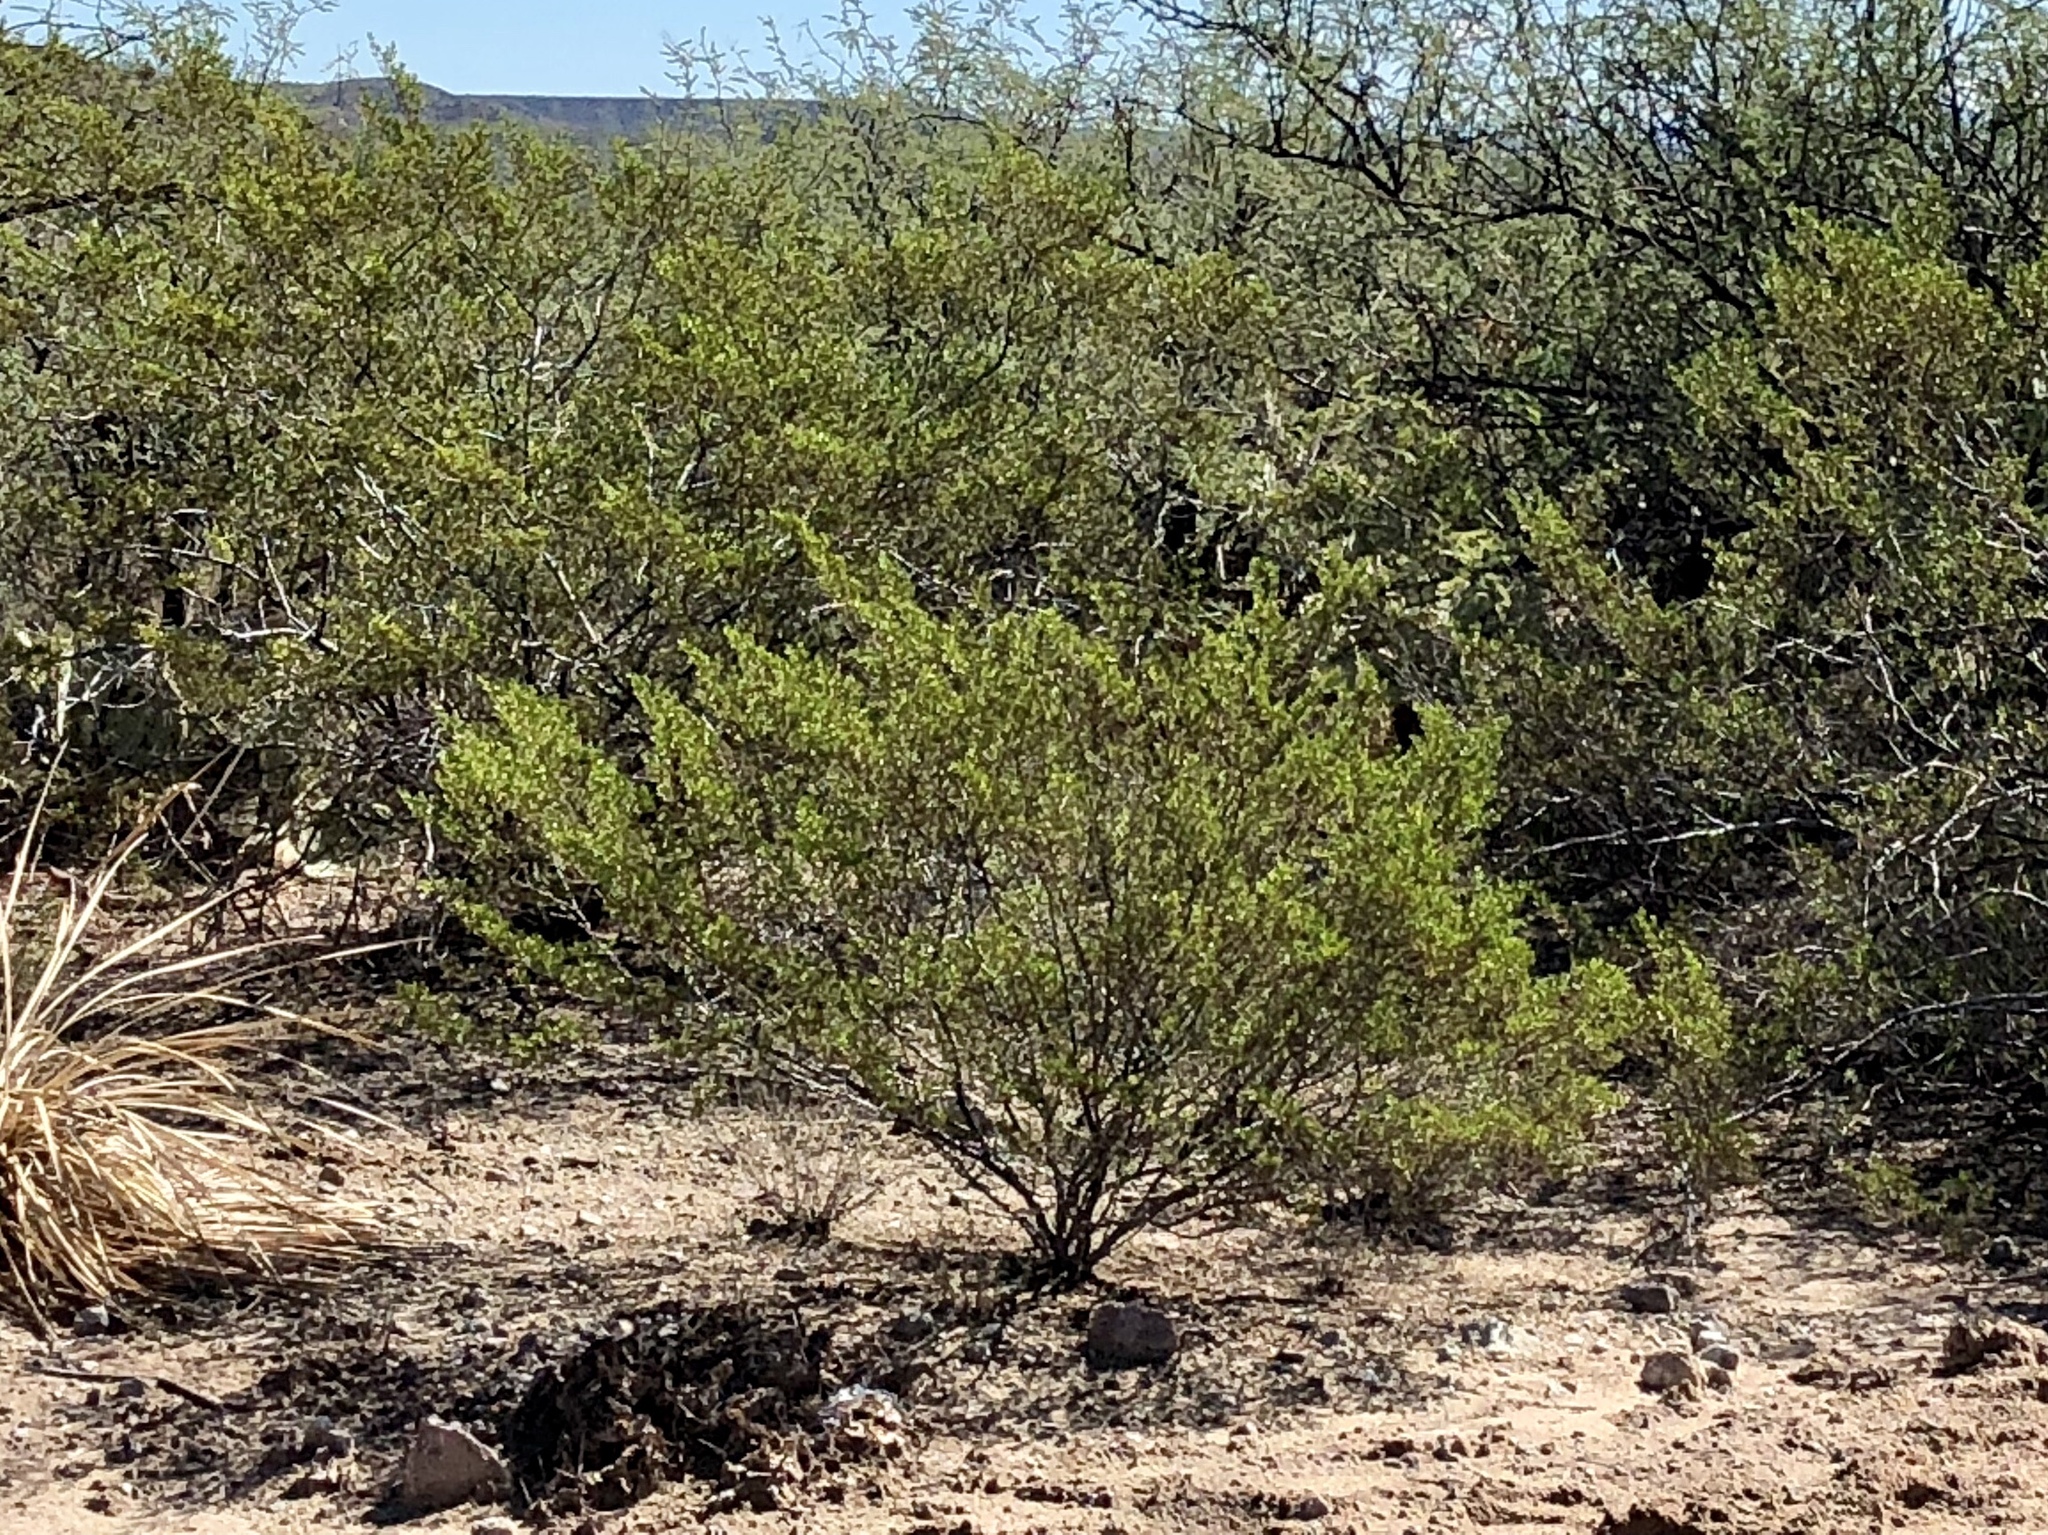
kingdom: Plantae
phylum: Tracheophyta
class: Magnoliopsida
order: Zygophyllales
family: Zygophyllaceae
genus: Larrea
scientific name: Larrea tridentata
